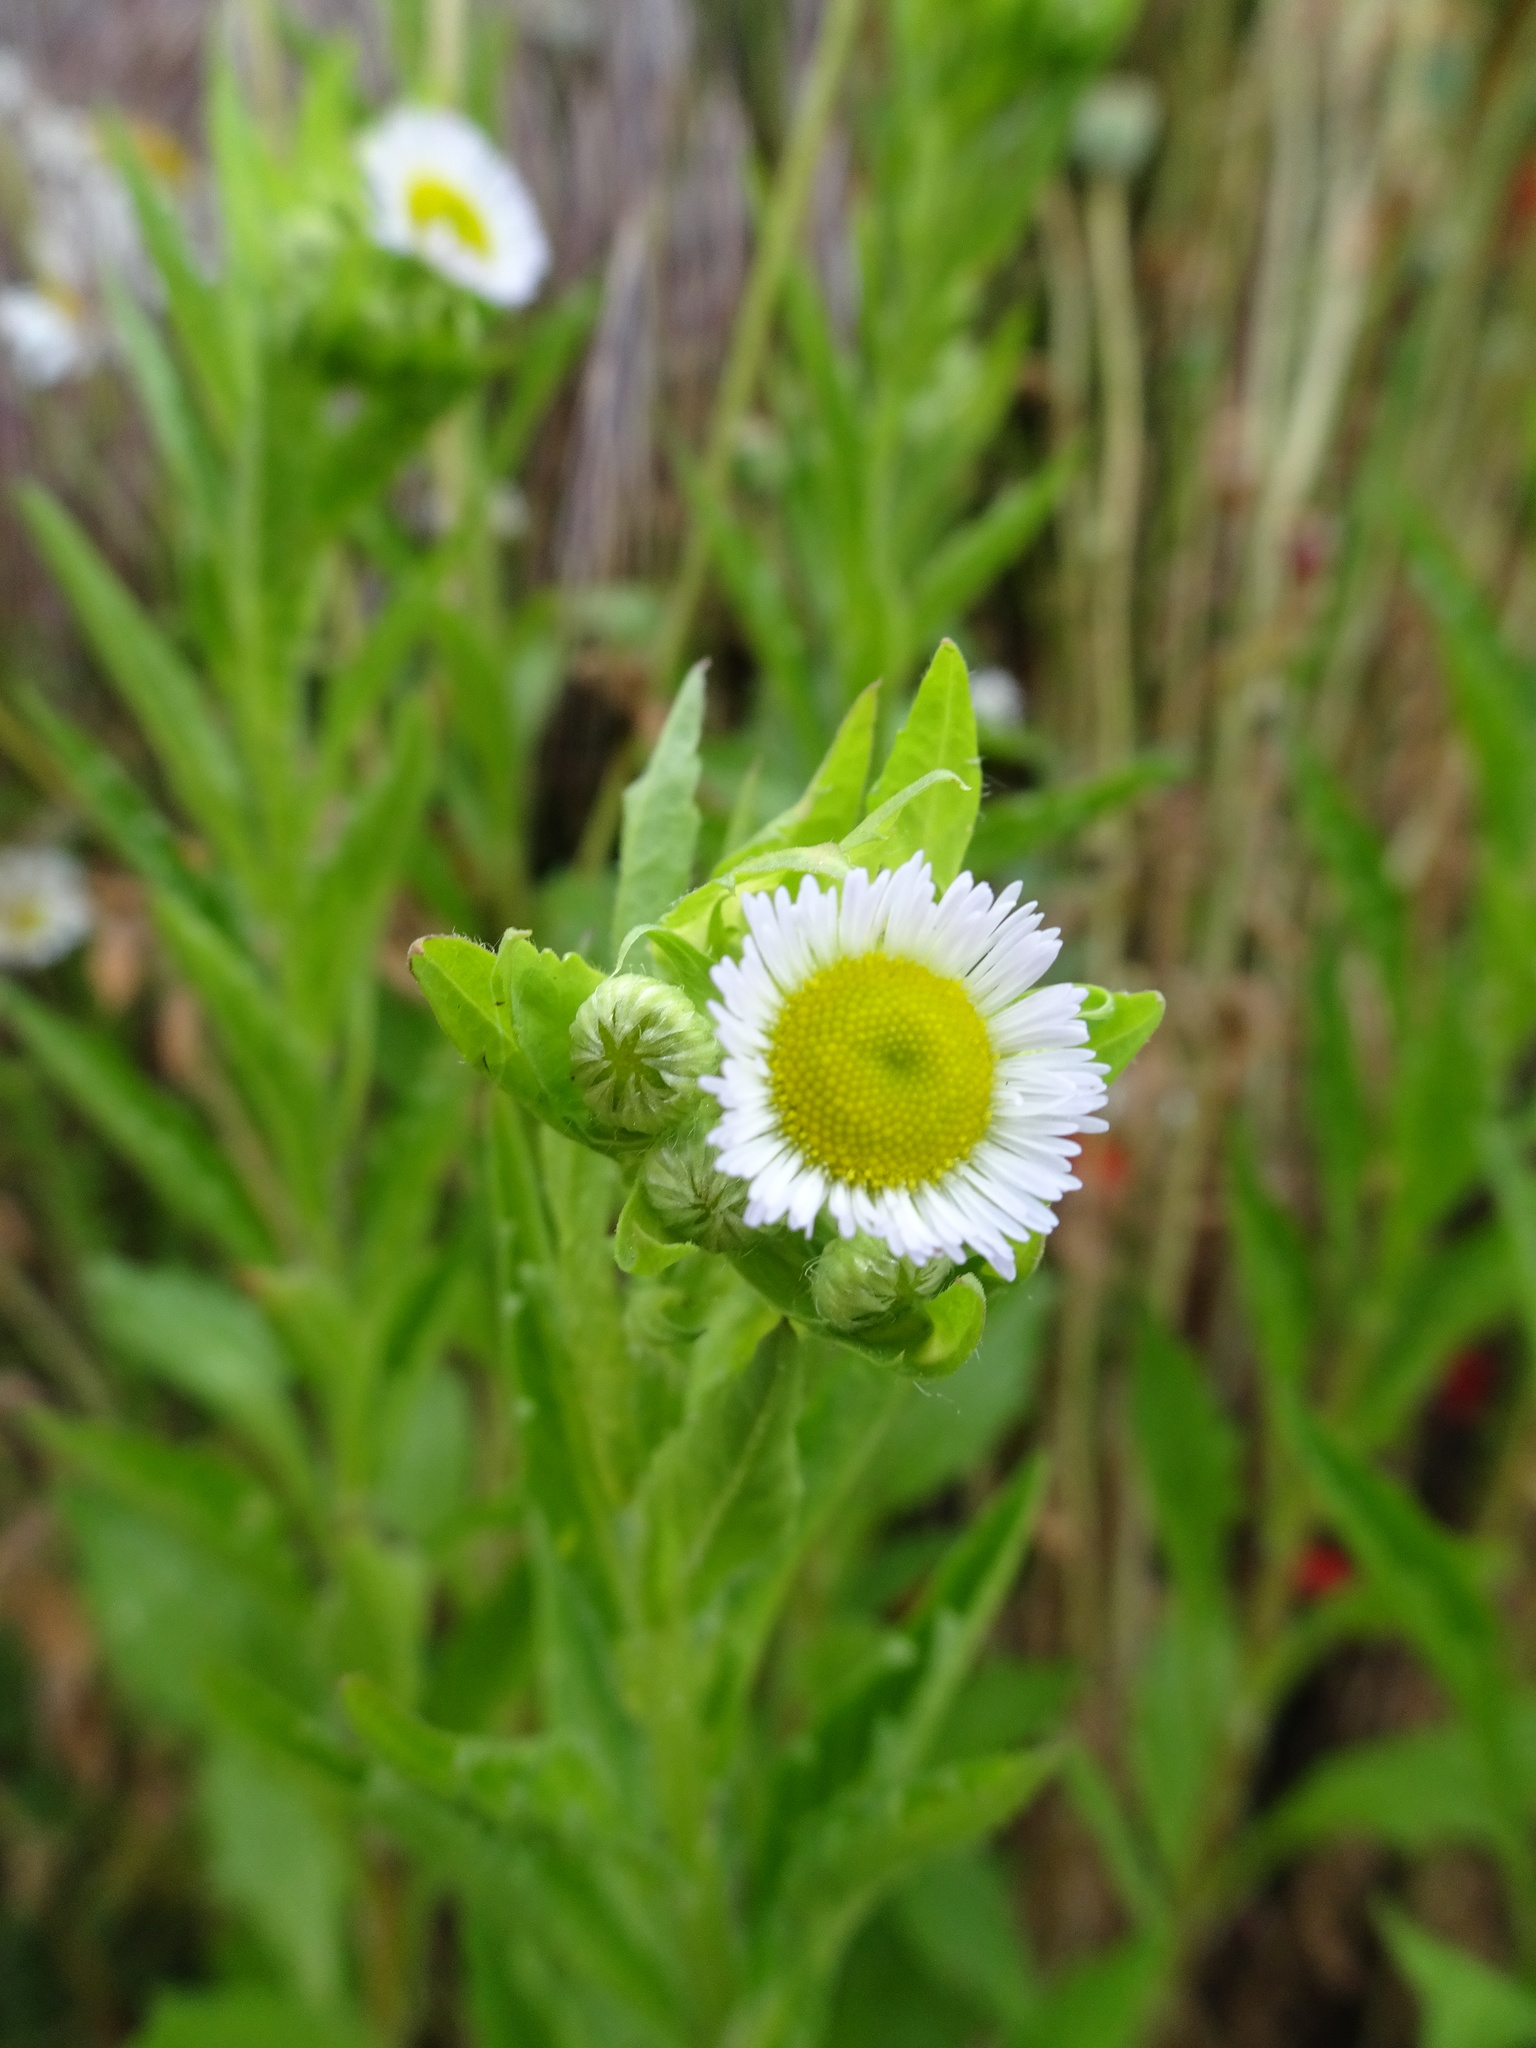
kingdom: Plantae
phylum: Tracheophyta
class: Magnoliopsida
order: Asterales
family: Asteraceae
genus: Erigeron
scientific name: Erigeron annuus
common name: Tall fleabane
